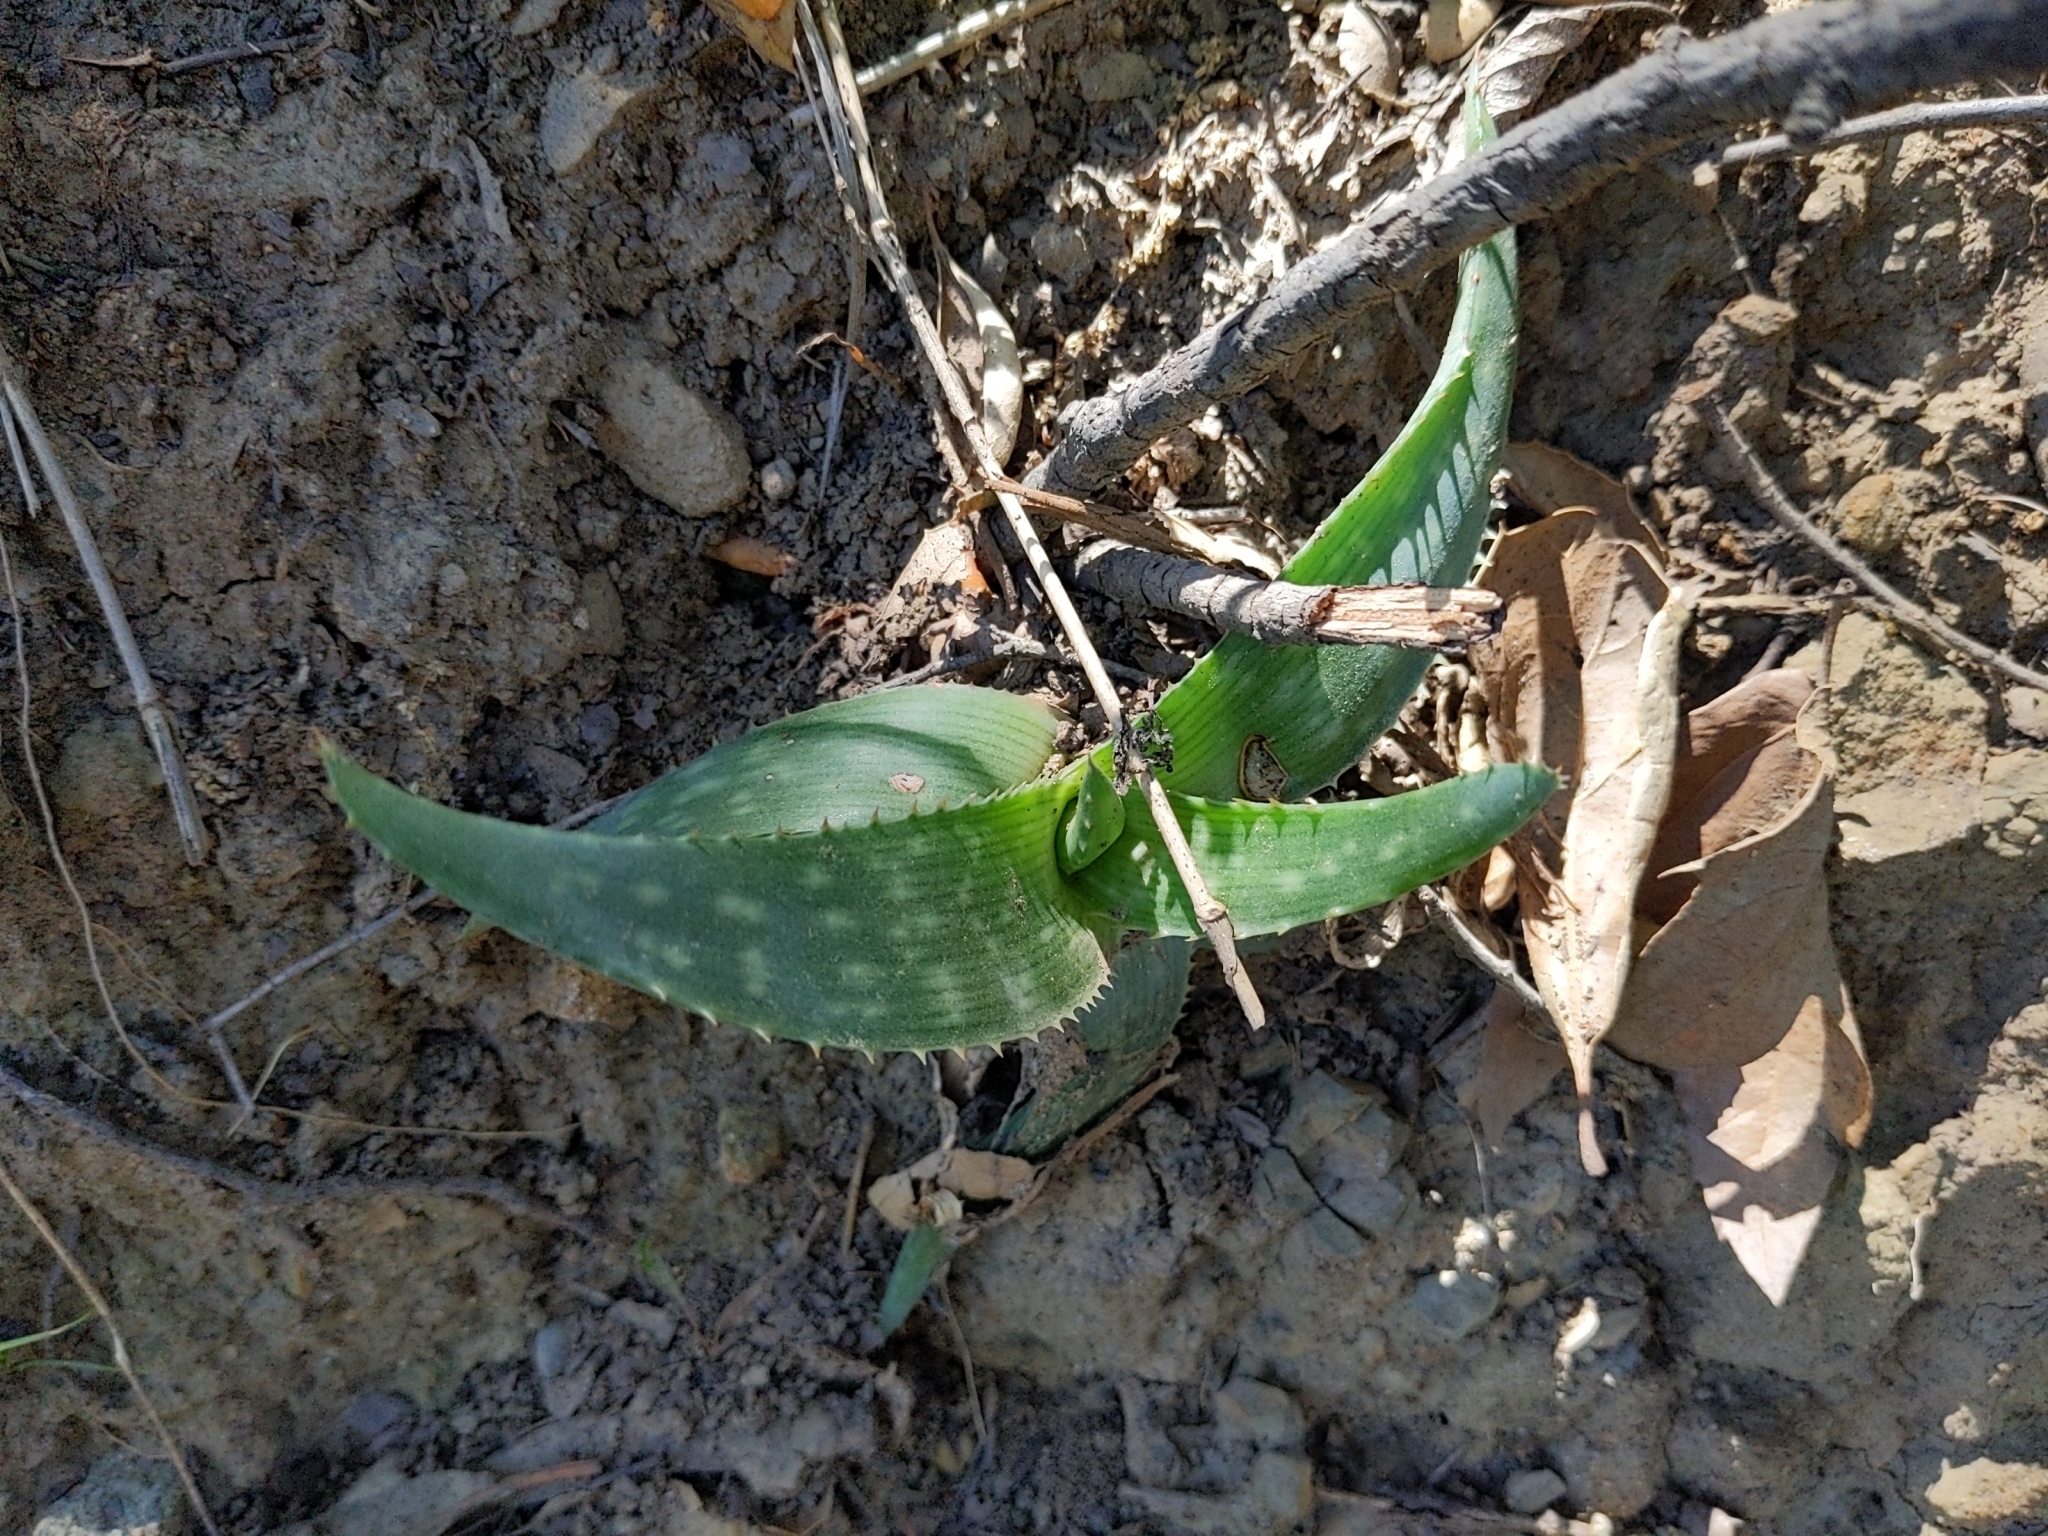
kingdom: Plantae
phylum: Tracheophyta
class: Liliopsida
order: Asparagales
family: Asphodelaceae
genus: Aloe
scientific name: Aloe maculata
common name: Broadleaf aloe
